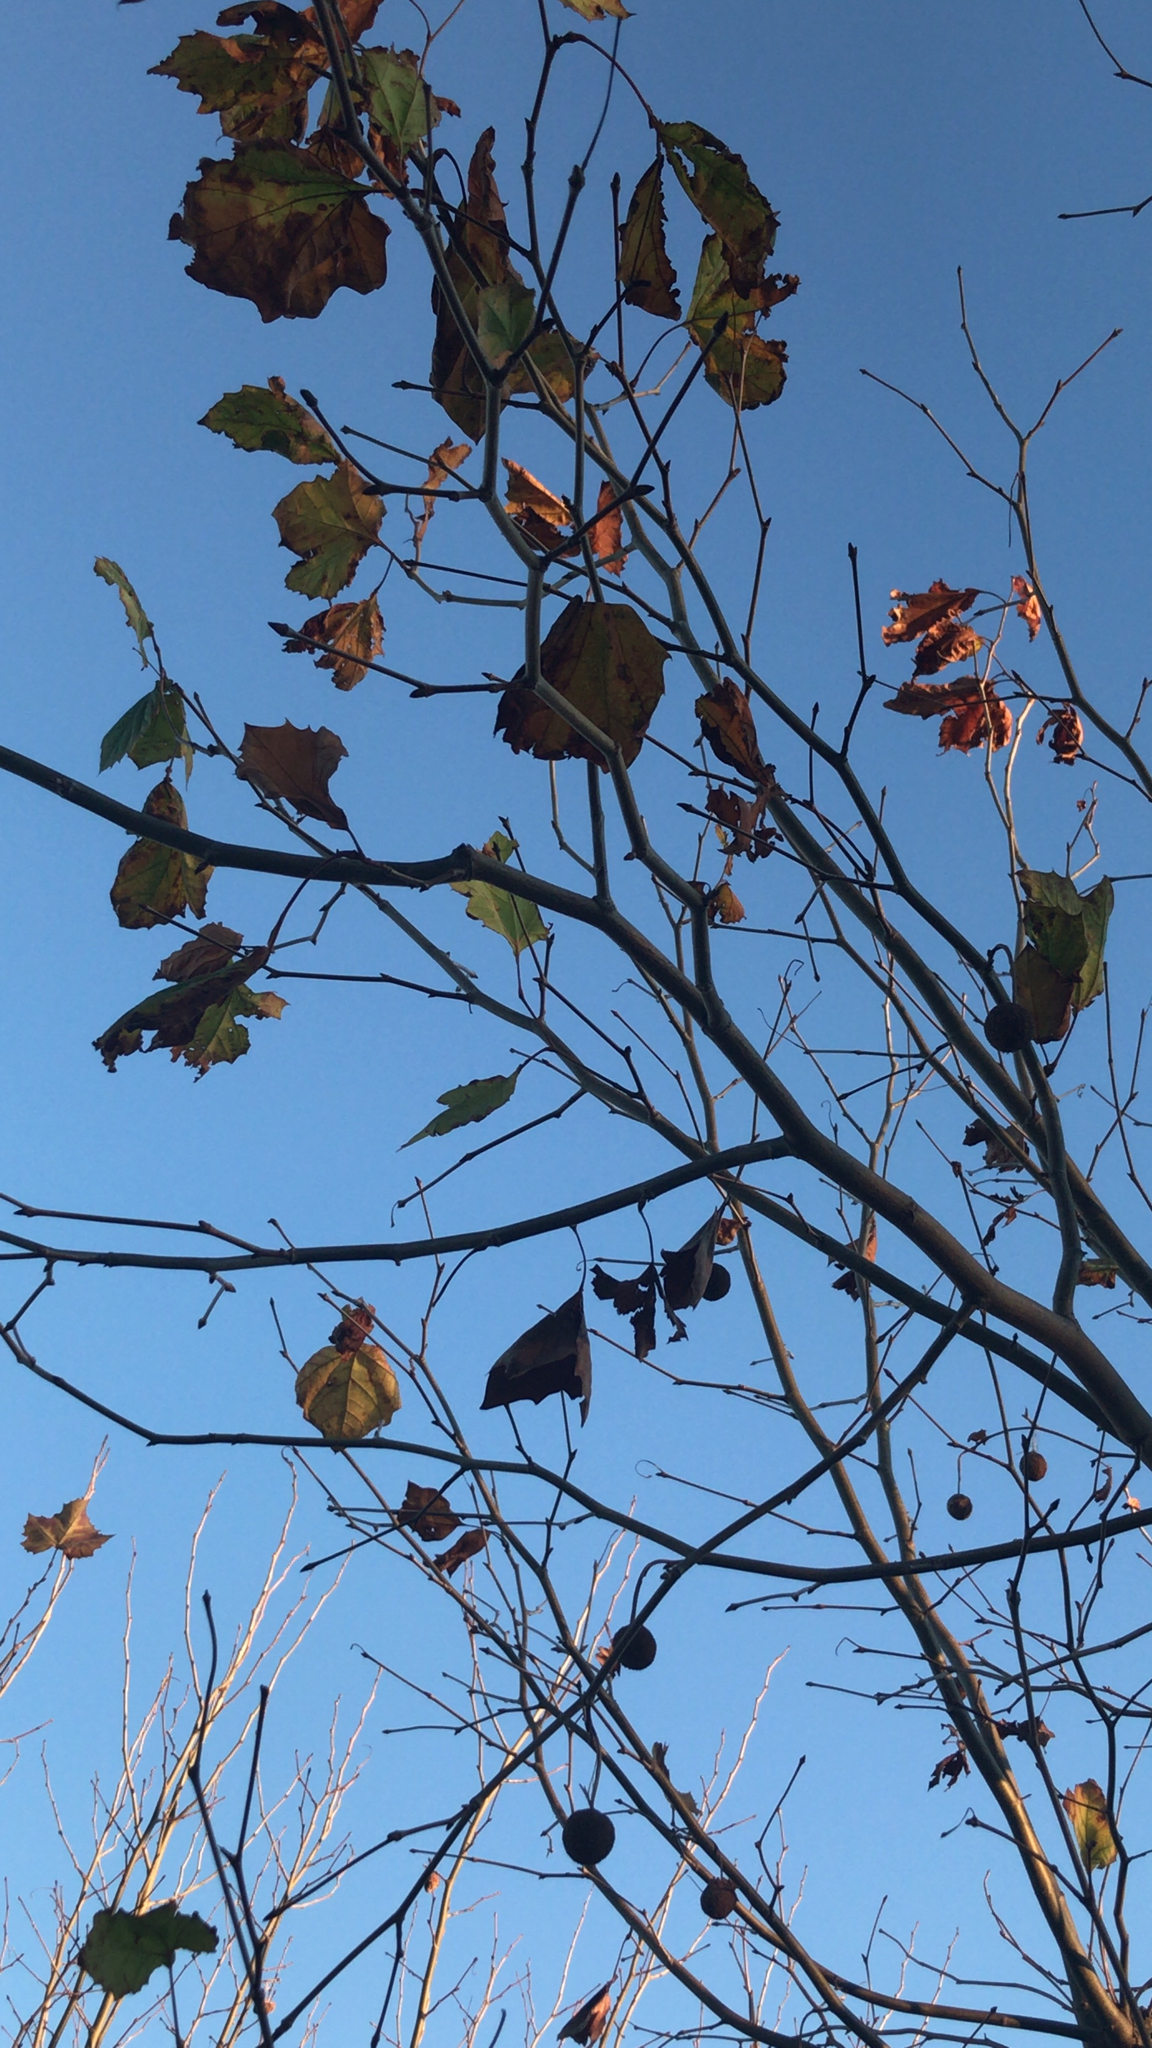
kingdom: Plantae
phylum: Tracheophyta
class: Magnoliopsida
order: Proteales
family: Platanaceae
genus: Platanus
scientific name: Platanus occidentalis
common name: American sycamore
